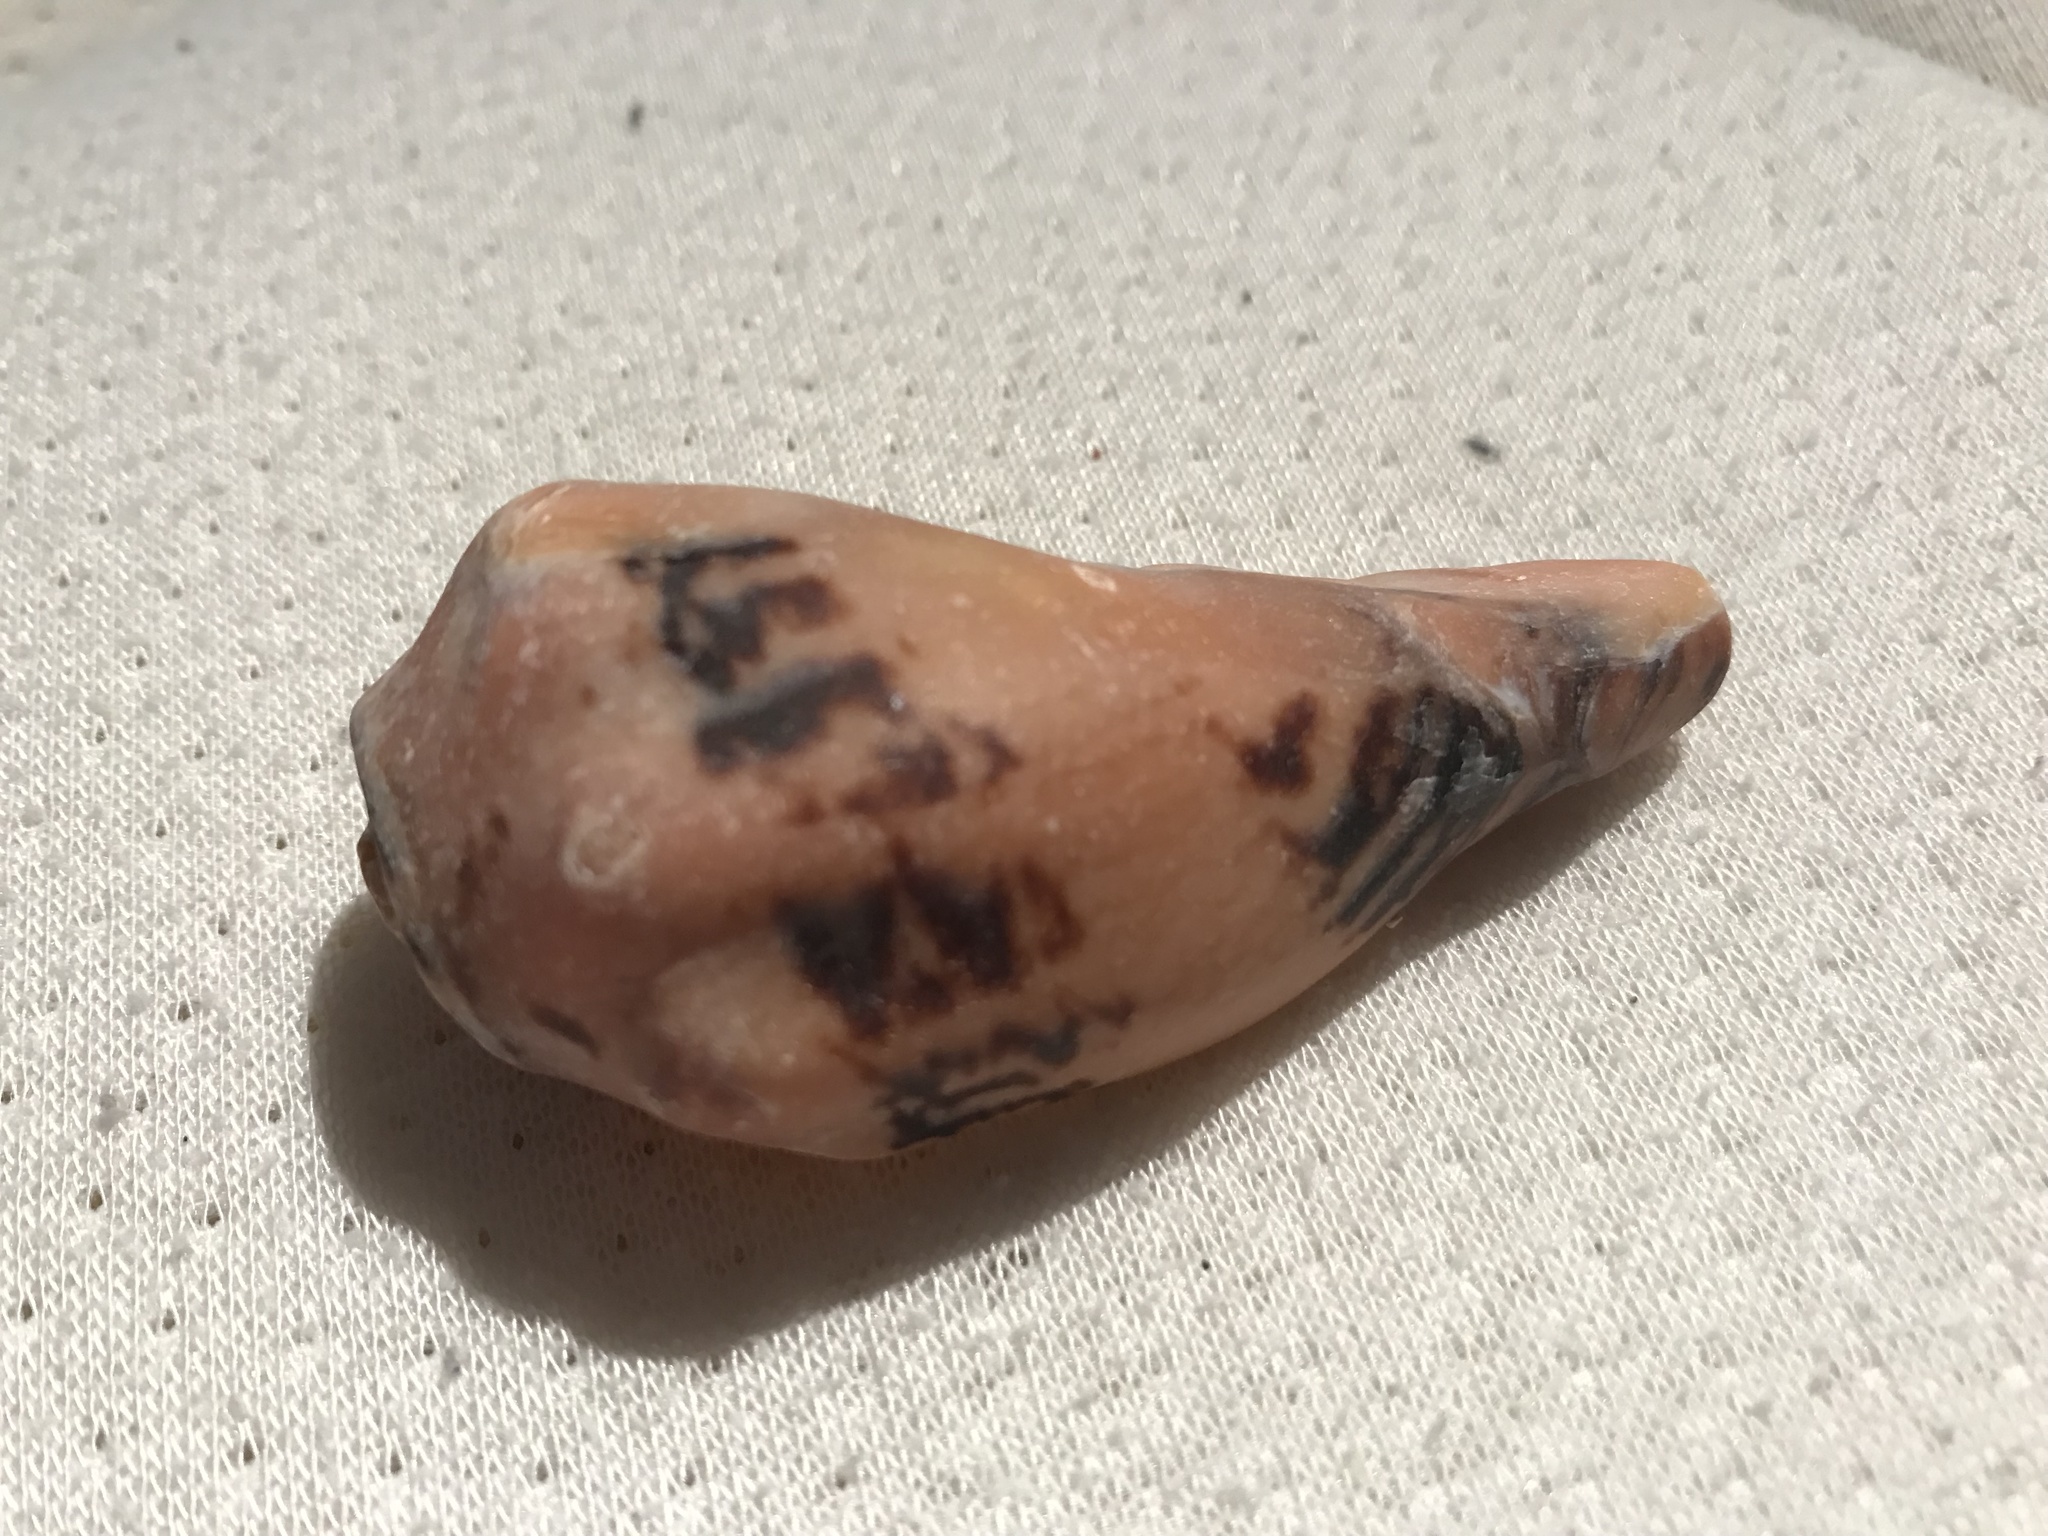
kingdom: Animalia
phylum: Mollusca
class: Gastropoda
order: Neogastropoda
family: Volutidae
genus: Alcithoe
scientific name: Alcithoe arabica
